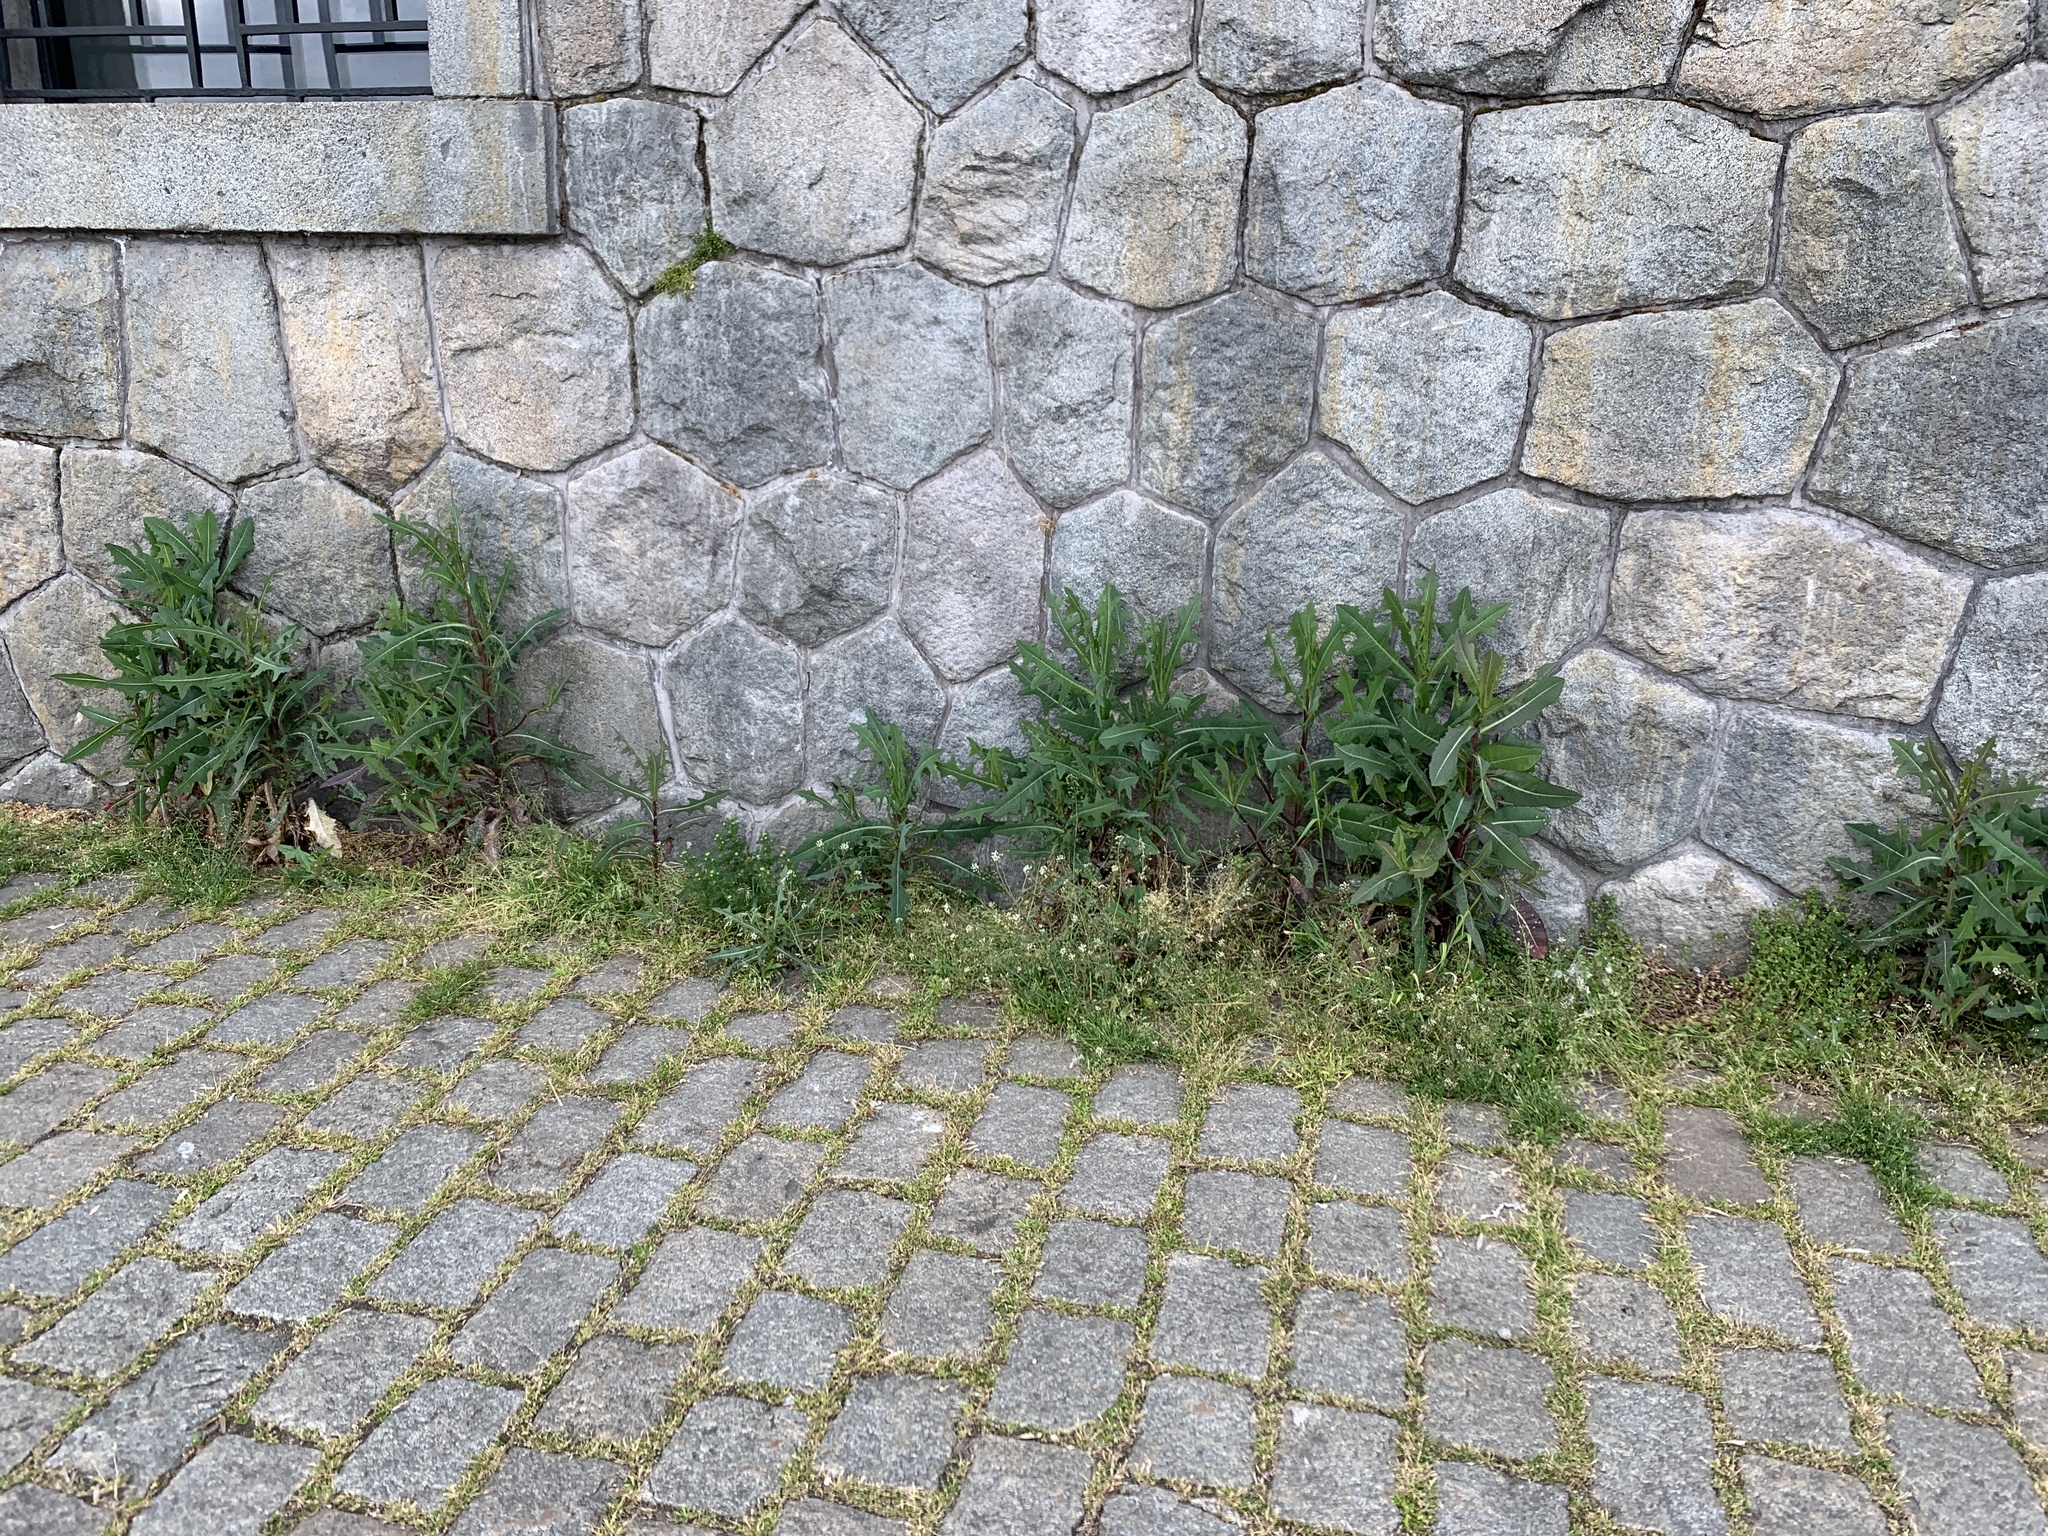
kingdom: Plantae
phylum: Tracheophyta
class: Magnoliopsida
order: Asterales
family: Asteraceae
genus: Lactuca
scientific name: Lactuca serriola
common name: Prickly lettuce
